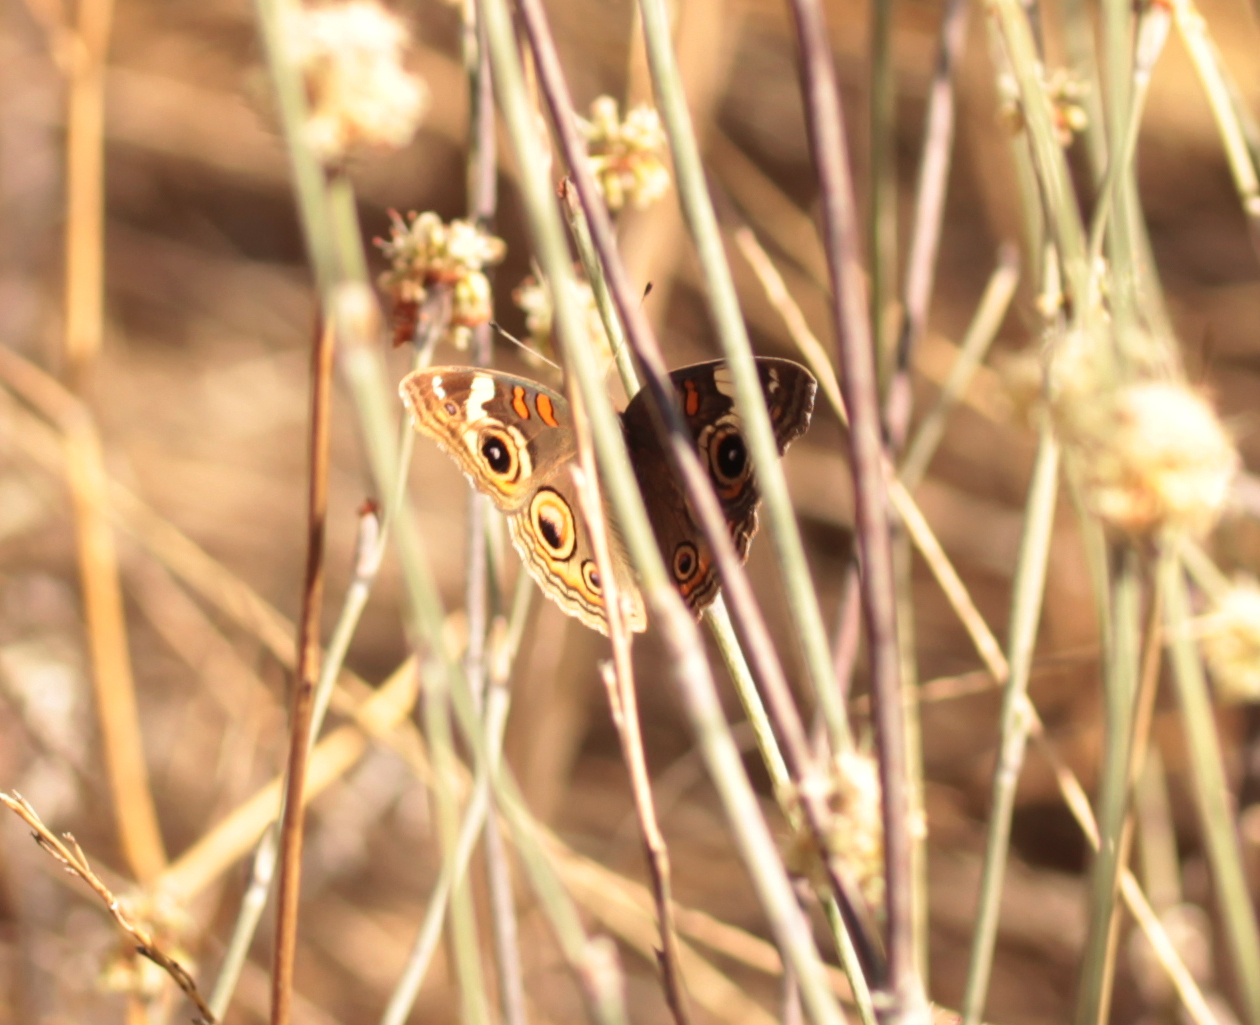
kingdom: Animalia
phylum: Arthropoda
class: Insecta
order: Lepidoptera
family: Nymphalidae
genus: Junonia
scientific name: Junonia grisea
